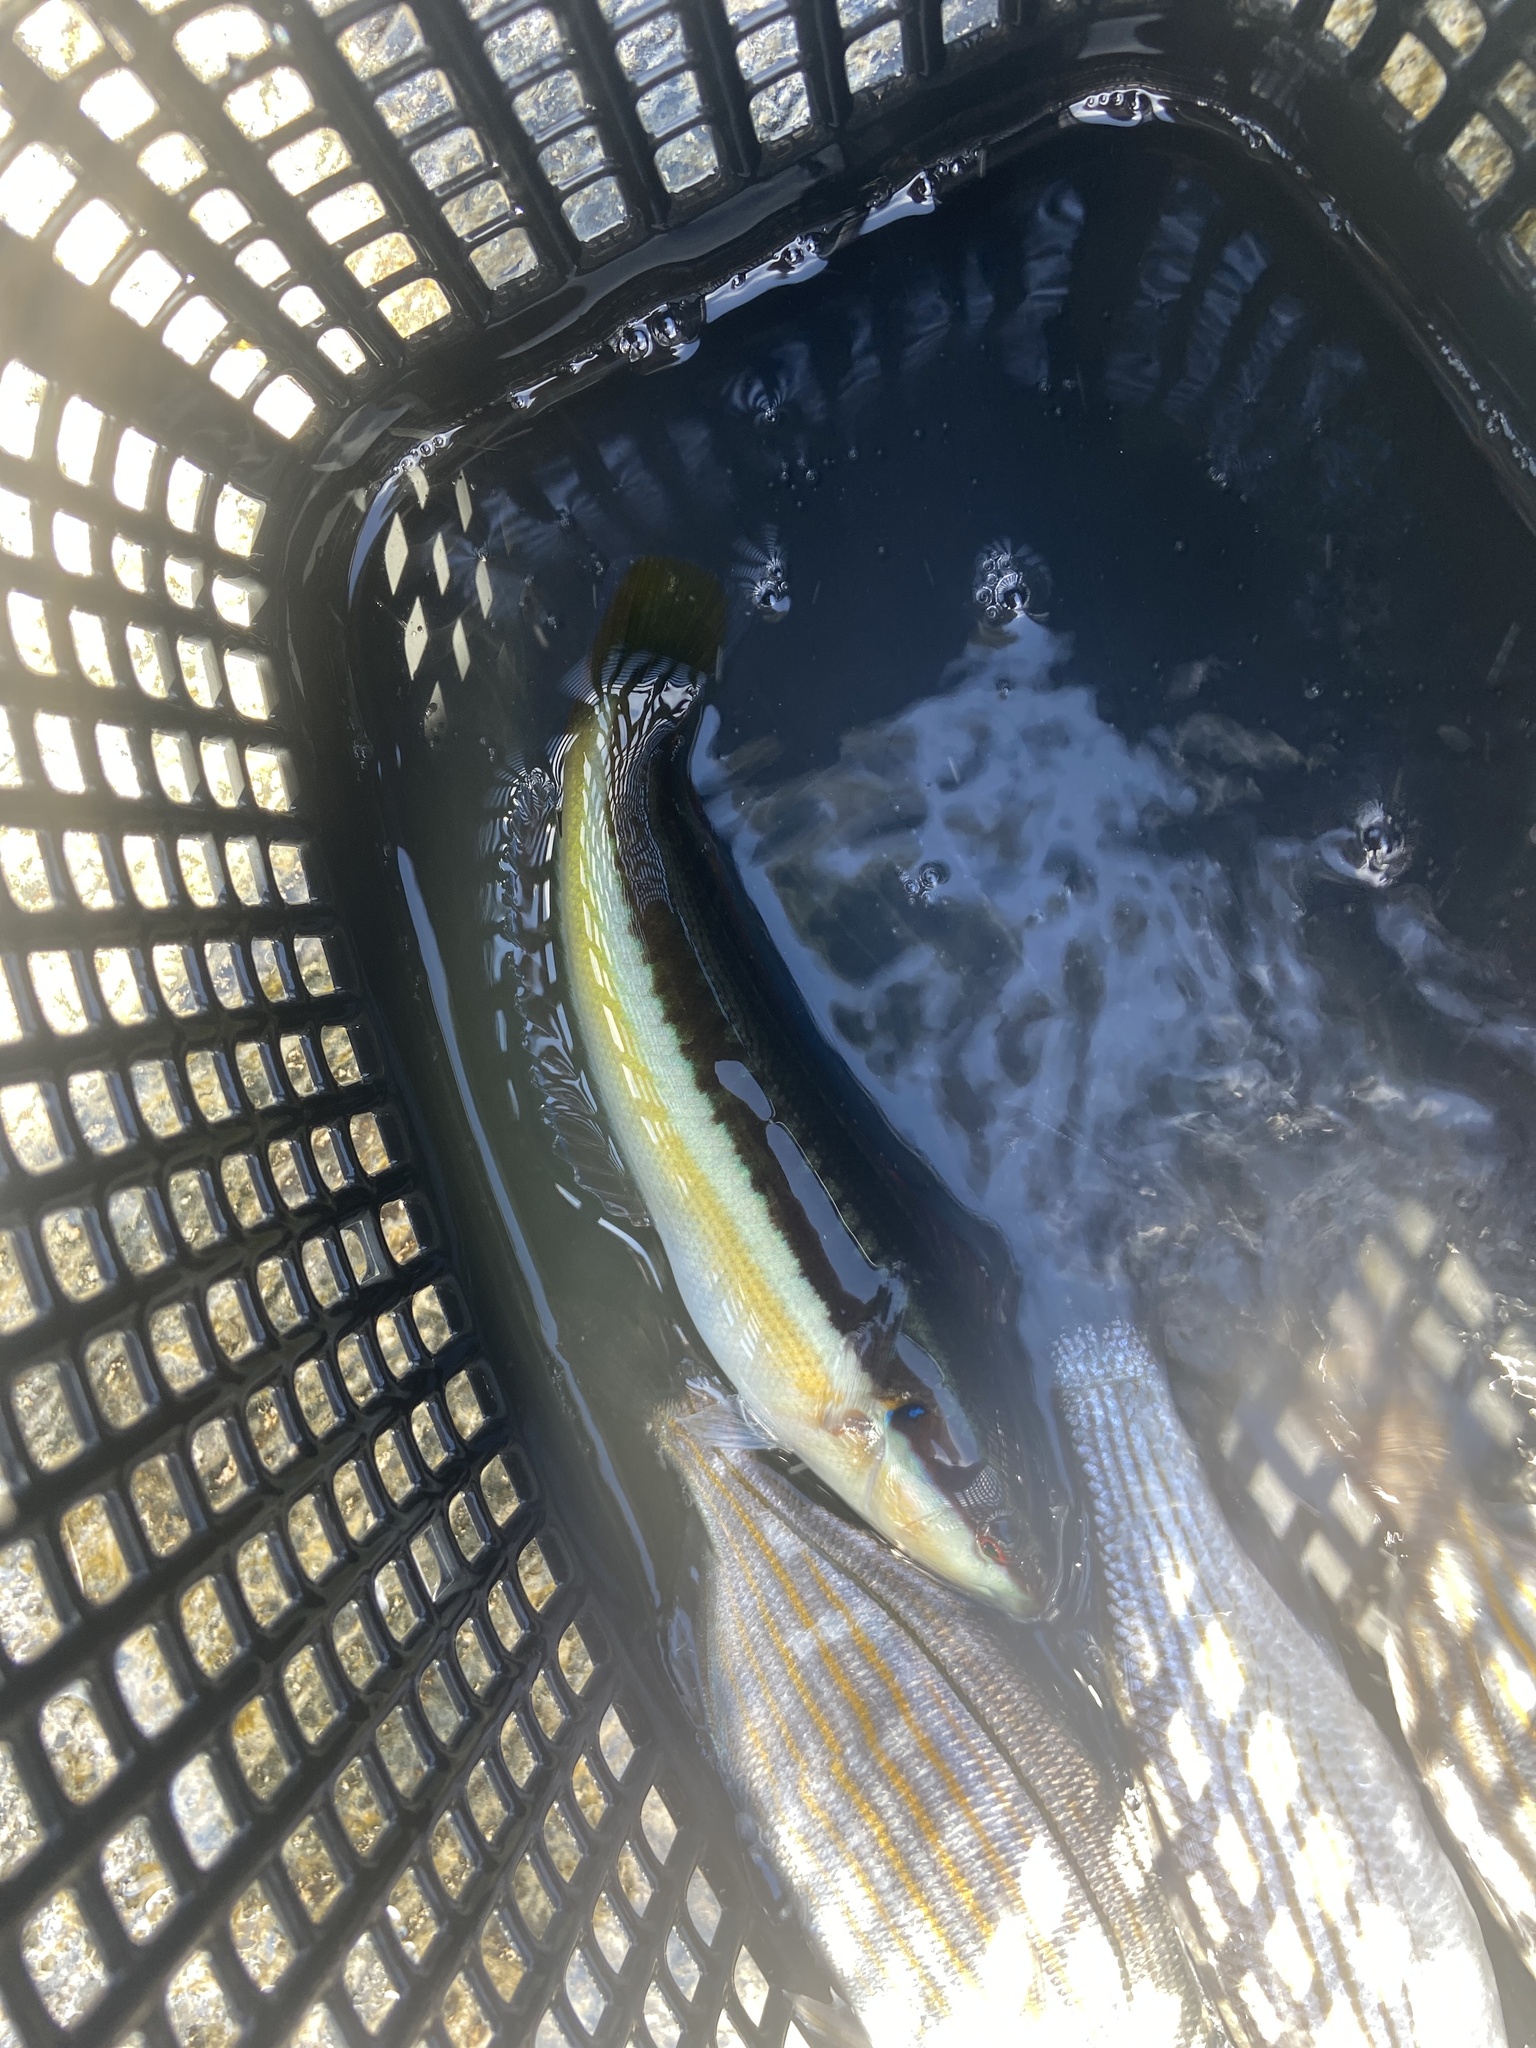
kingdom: Animalia
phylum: Chordata
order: Perciformes
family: Labridae
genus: Coris
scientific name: Coris julis
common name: Rainbow wrasse
